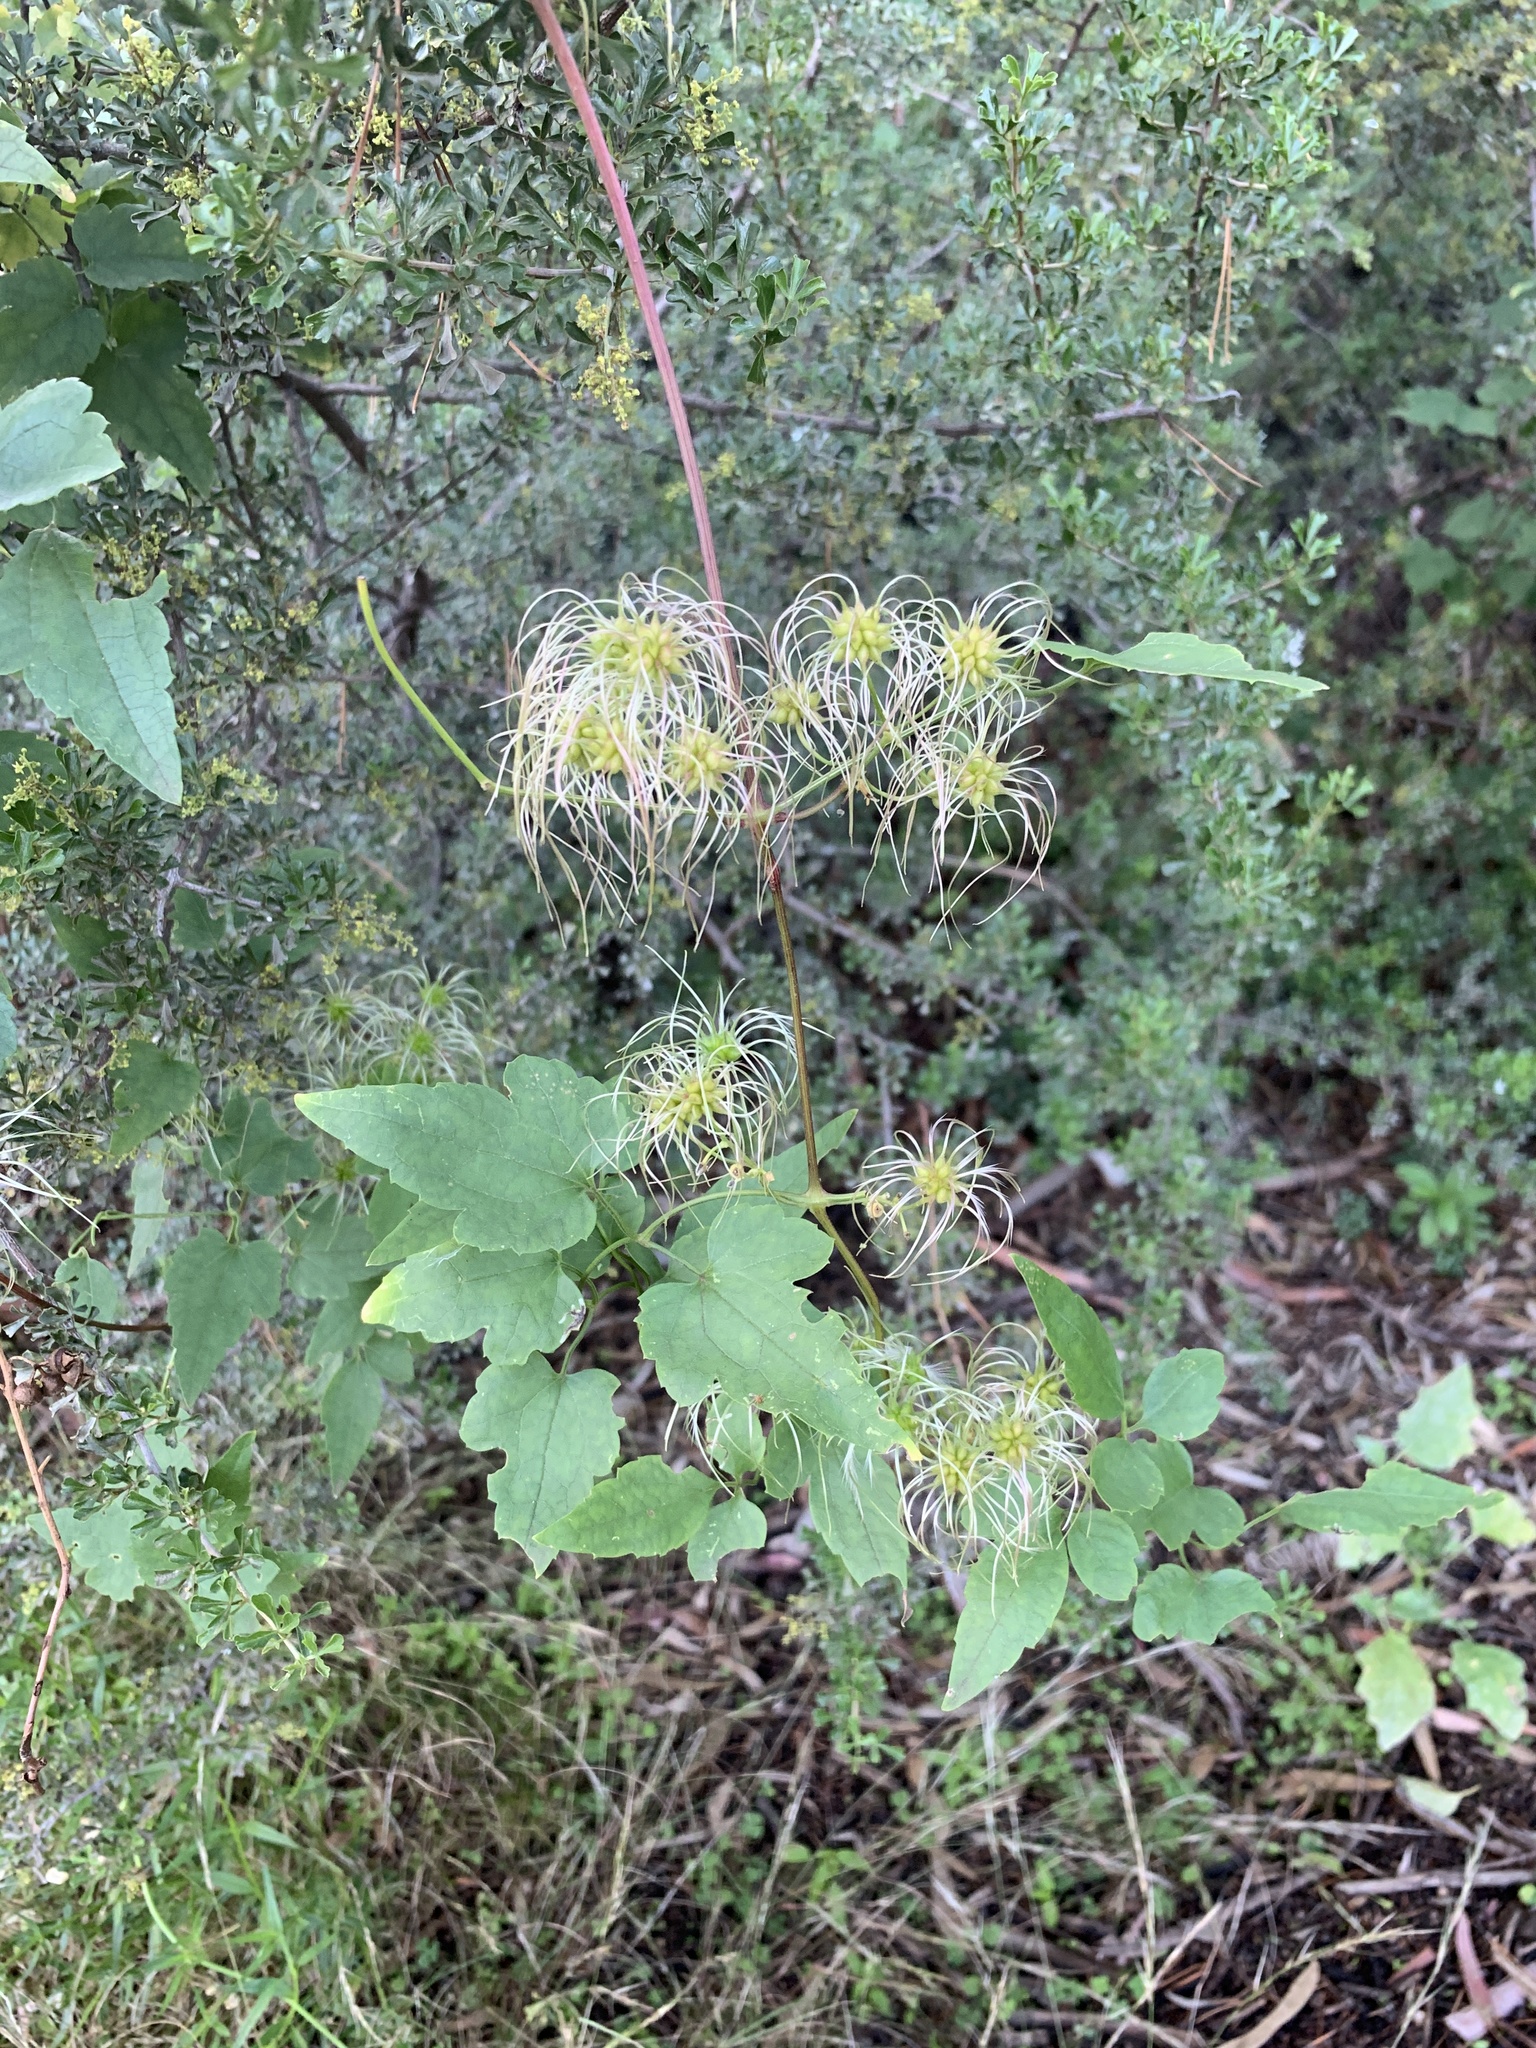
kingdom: Plantae
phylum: Tracheophyta
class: Magnoliopsida
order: Ranunculales
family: Ranunculaceae
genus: Clematis
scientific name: Clematis brachiata
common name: Traveler's-joy
